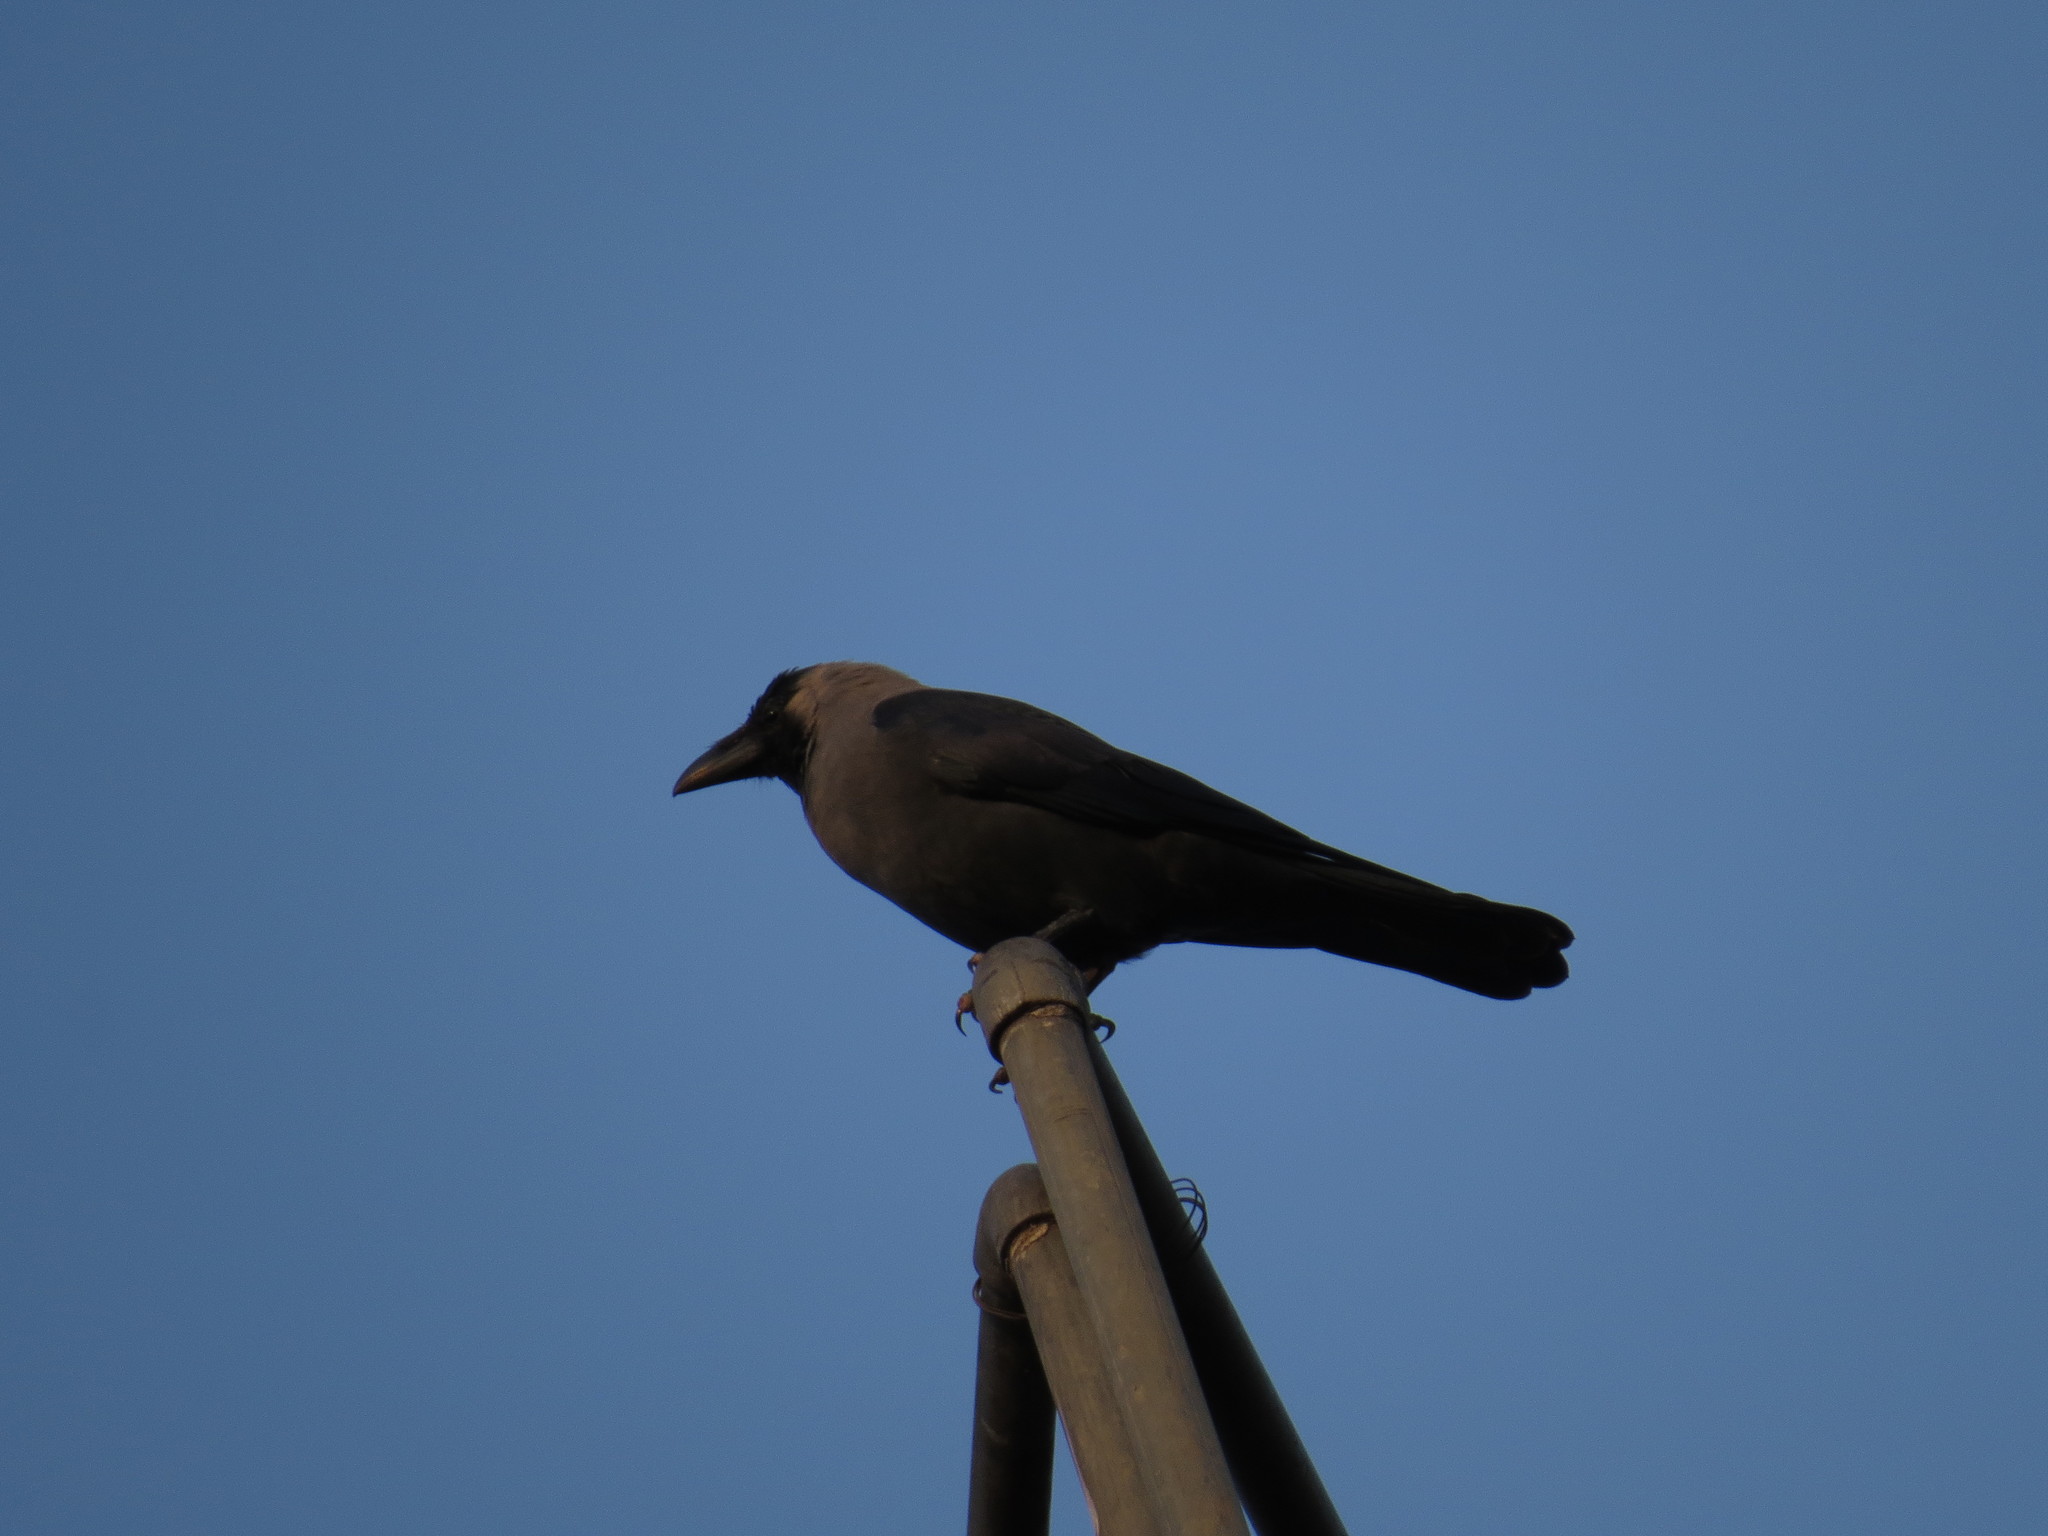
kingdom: Animalia
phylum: Chordata
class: Aves
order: Passeriformes
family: Corvidae
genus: Corvus
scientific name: Corvus splendens
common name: House crow
